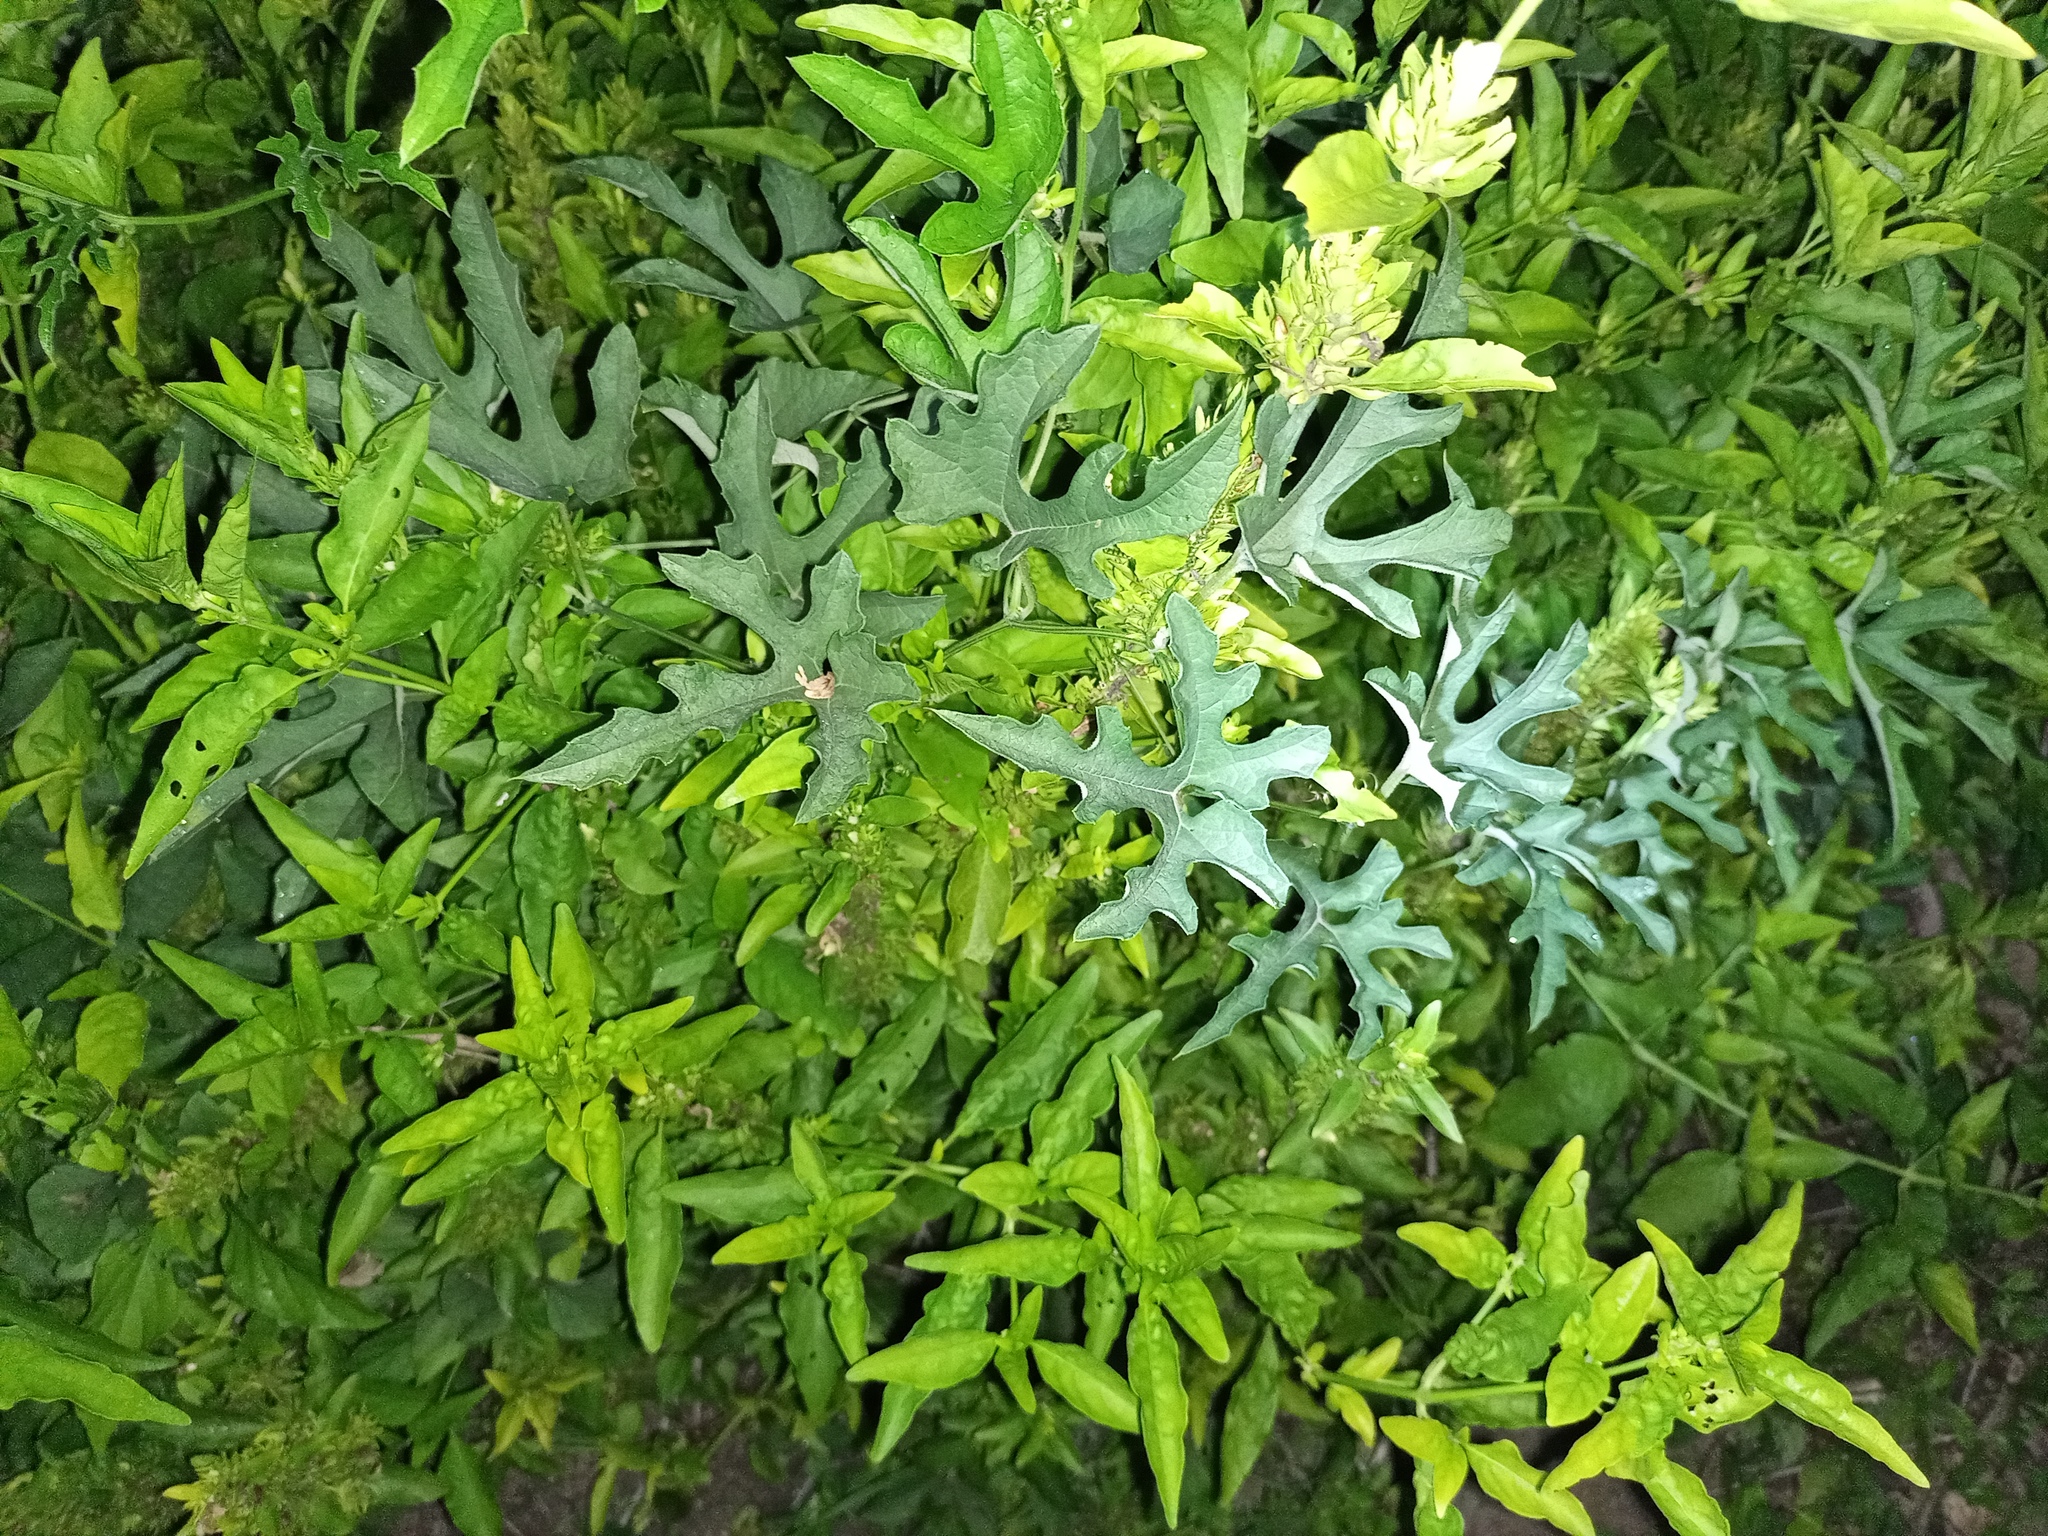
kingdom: Plantae
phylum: Tracheophyta
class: Magnoliopsida
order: Cucurbitales
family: Cucurbitaceae
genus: Cayaponia
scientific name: Cayaponia bonariensis
